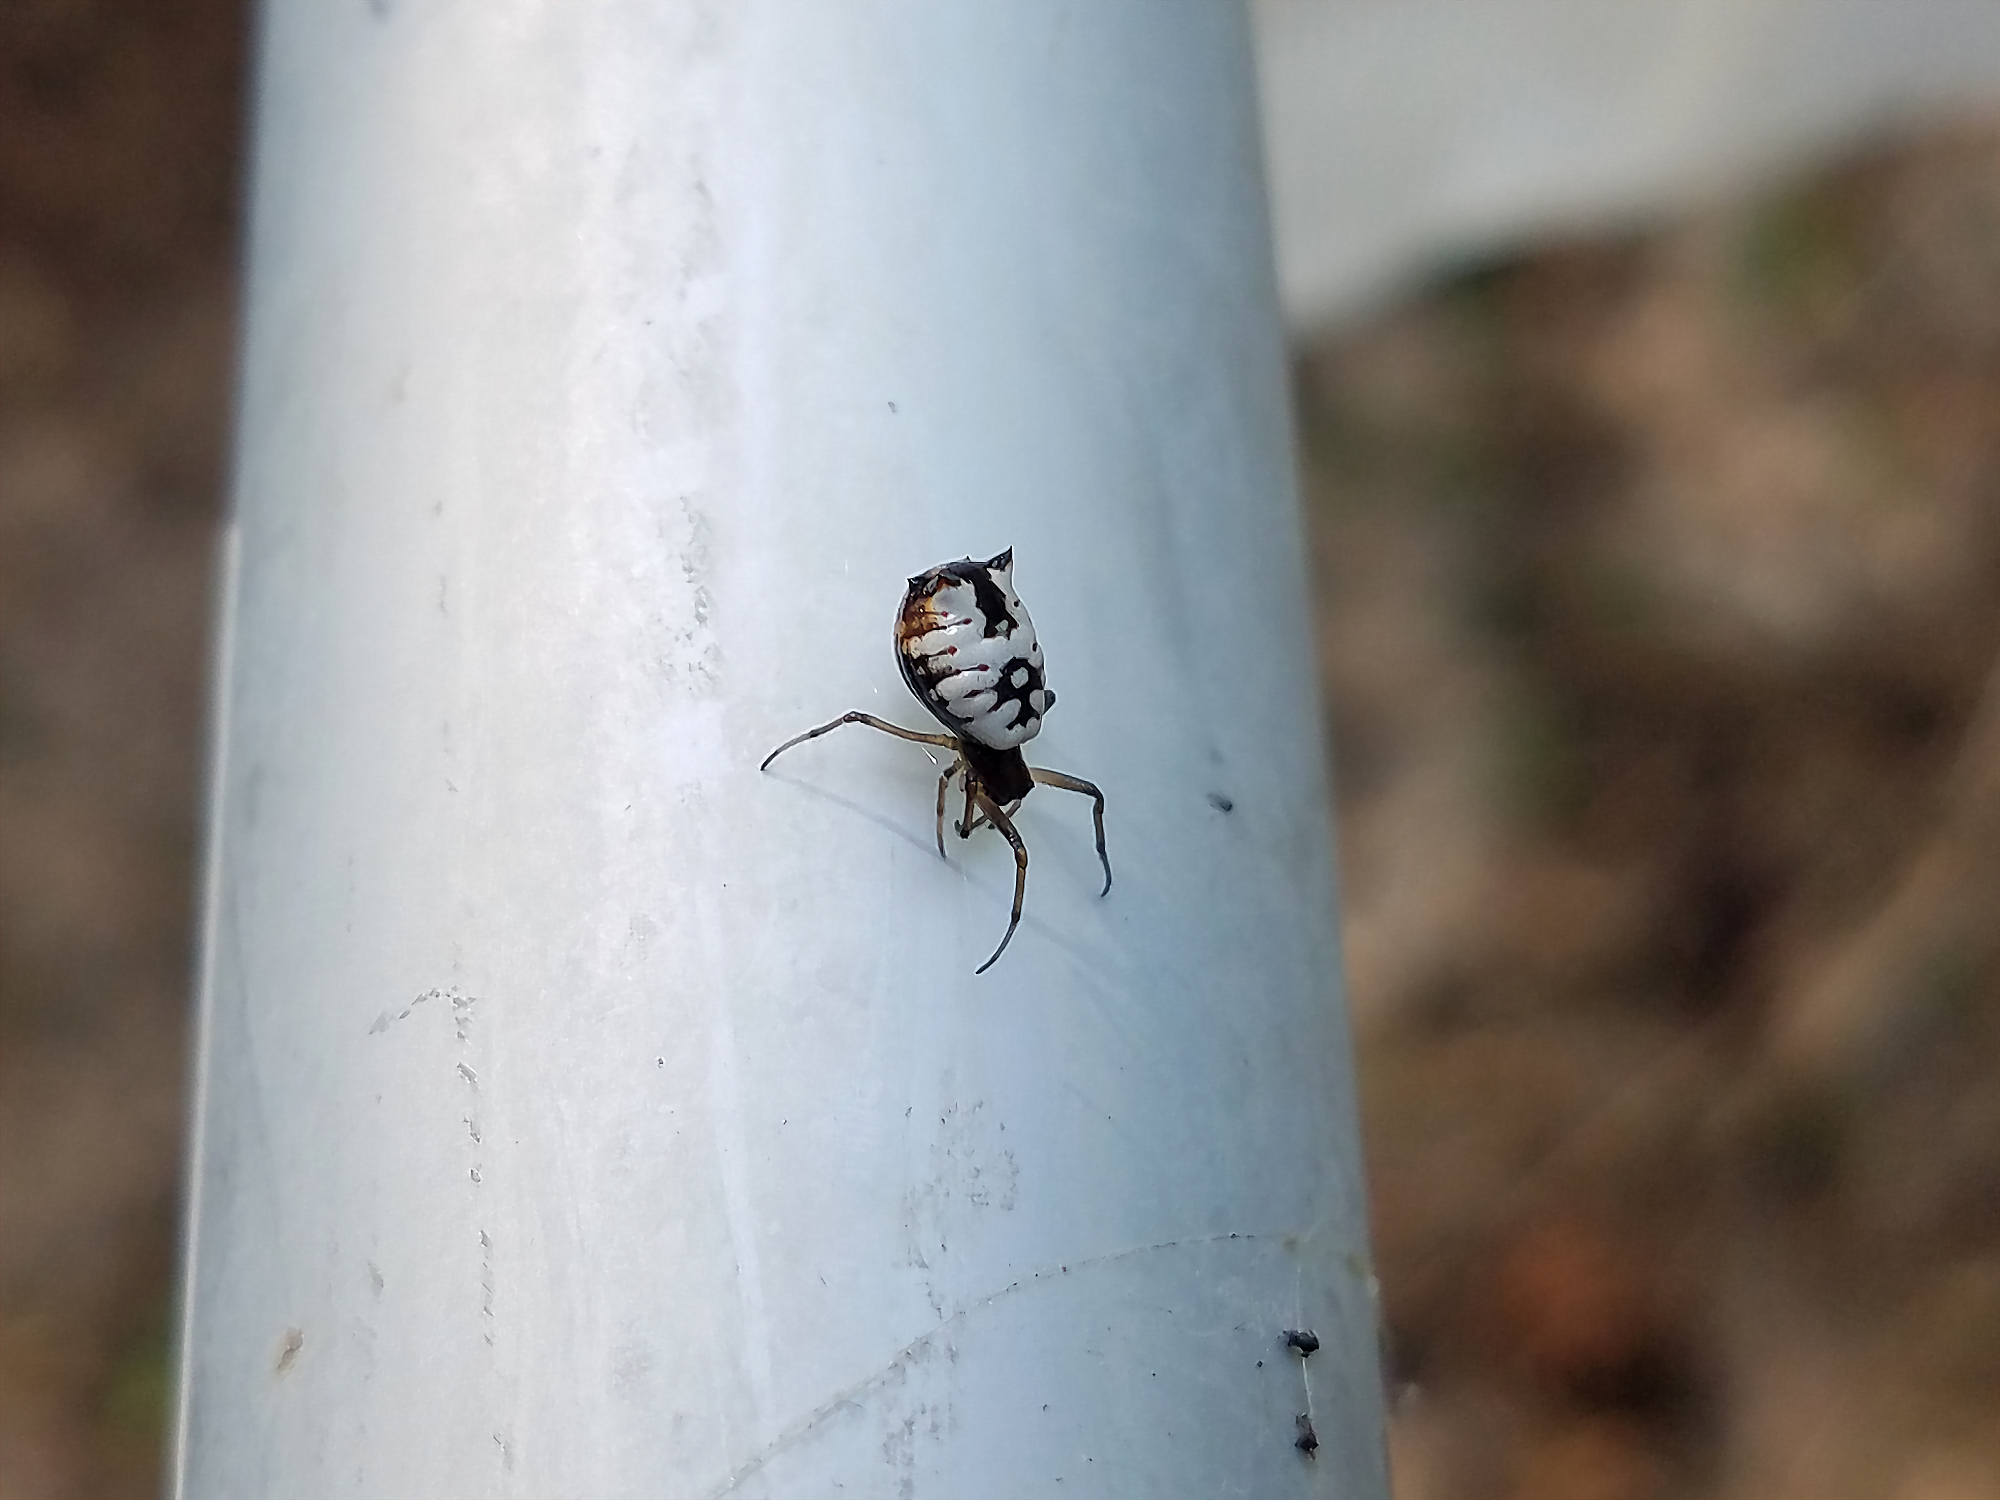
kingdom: Animalia
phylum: Arthropoda
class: Arachnida
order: Araneae
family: Araneidae
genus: Micrathena
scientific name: Micrathena mitrata
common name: Orb weavers
